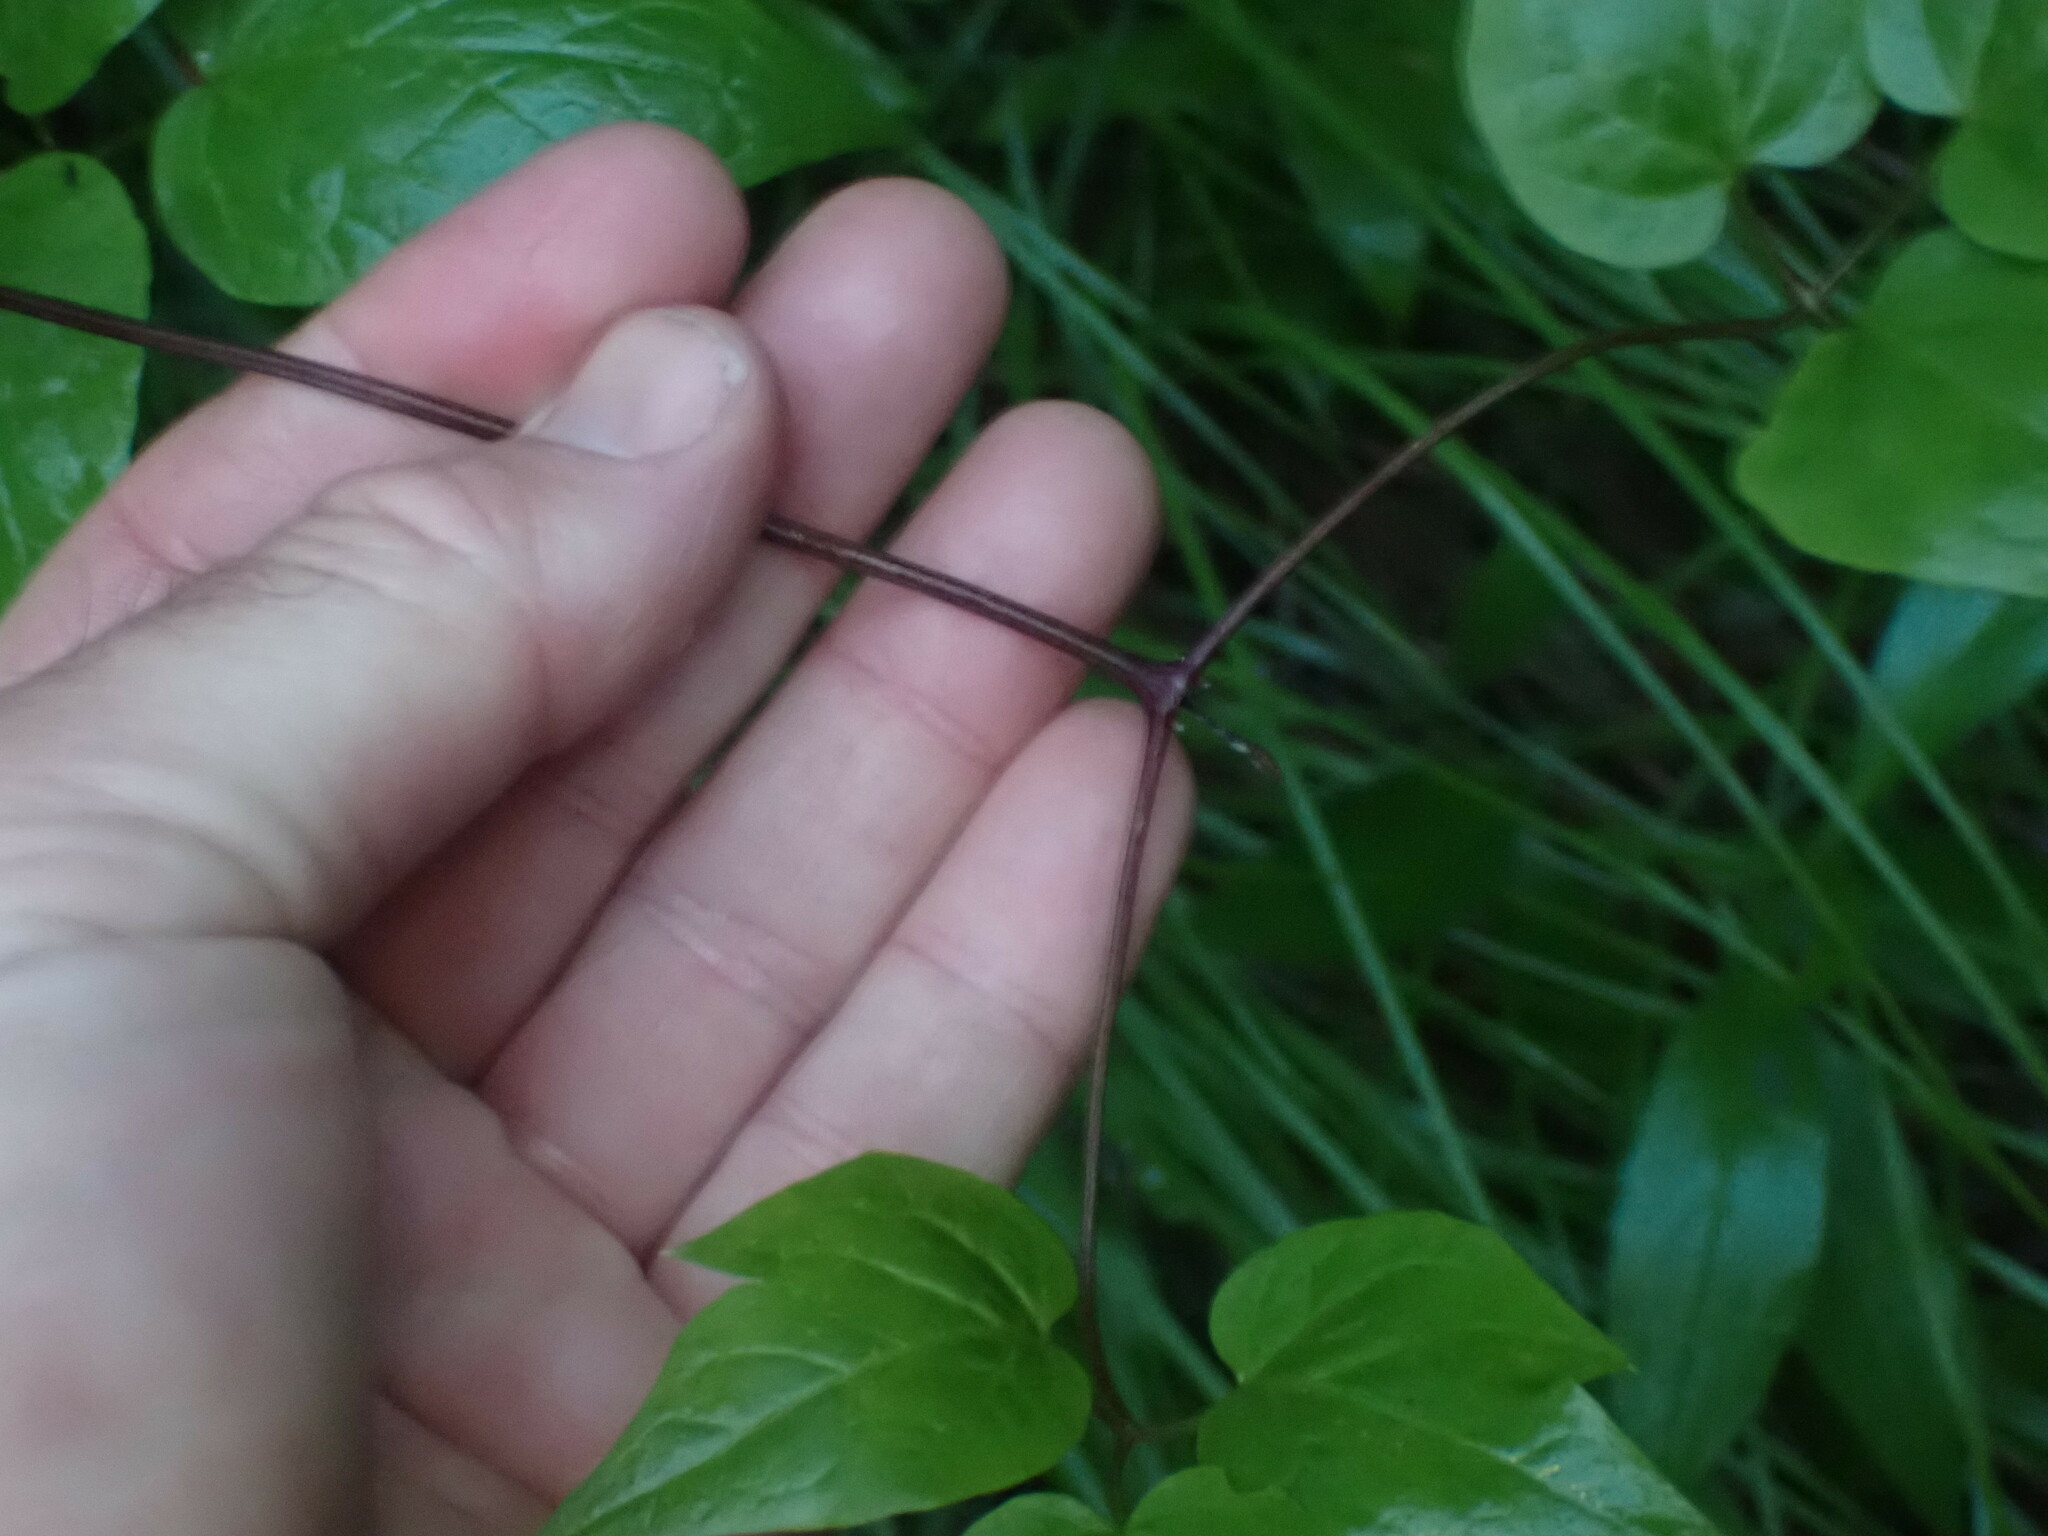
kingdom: Plantae
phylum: Tracheophyta
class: Magnoliopsida
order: Ranunculales
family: Ranunculaceae
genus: Clematis
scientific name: Clematis occidentalis
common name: Purple clematis
